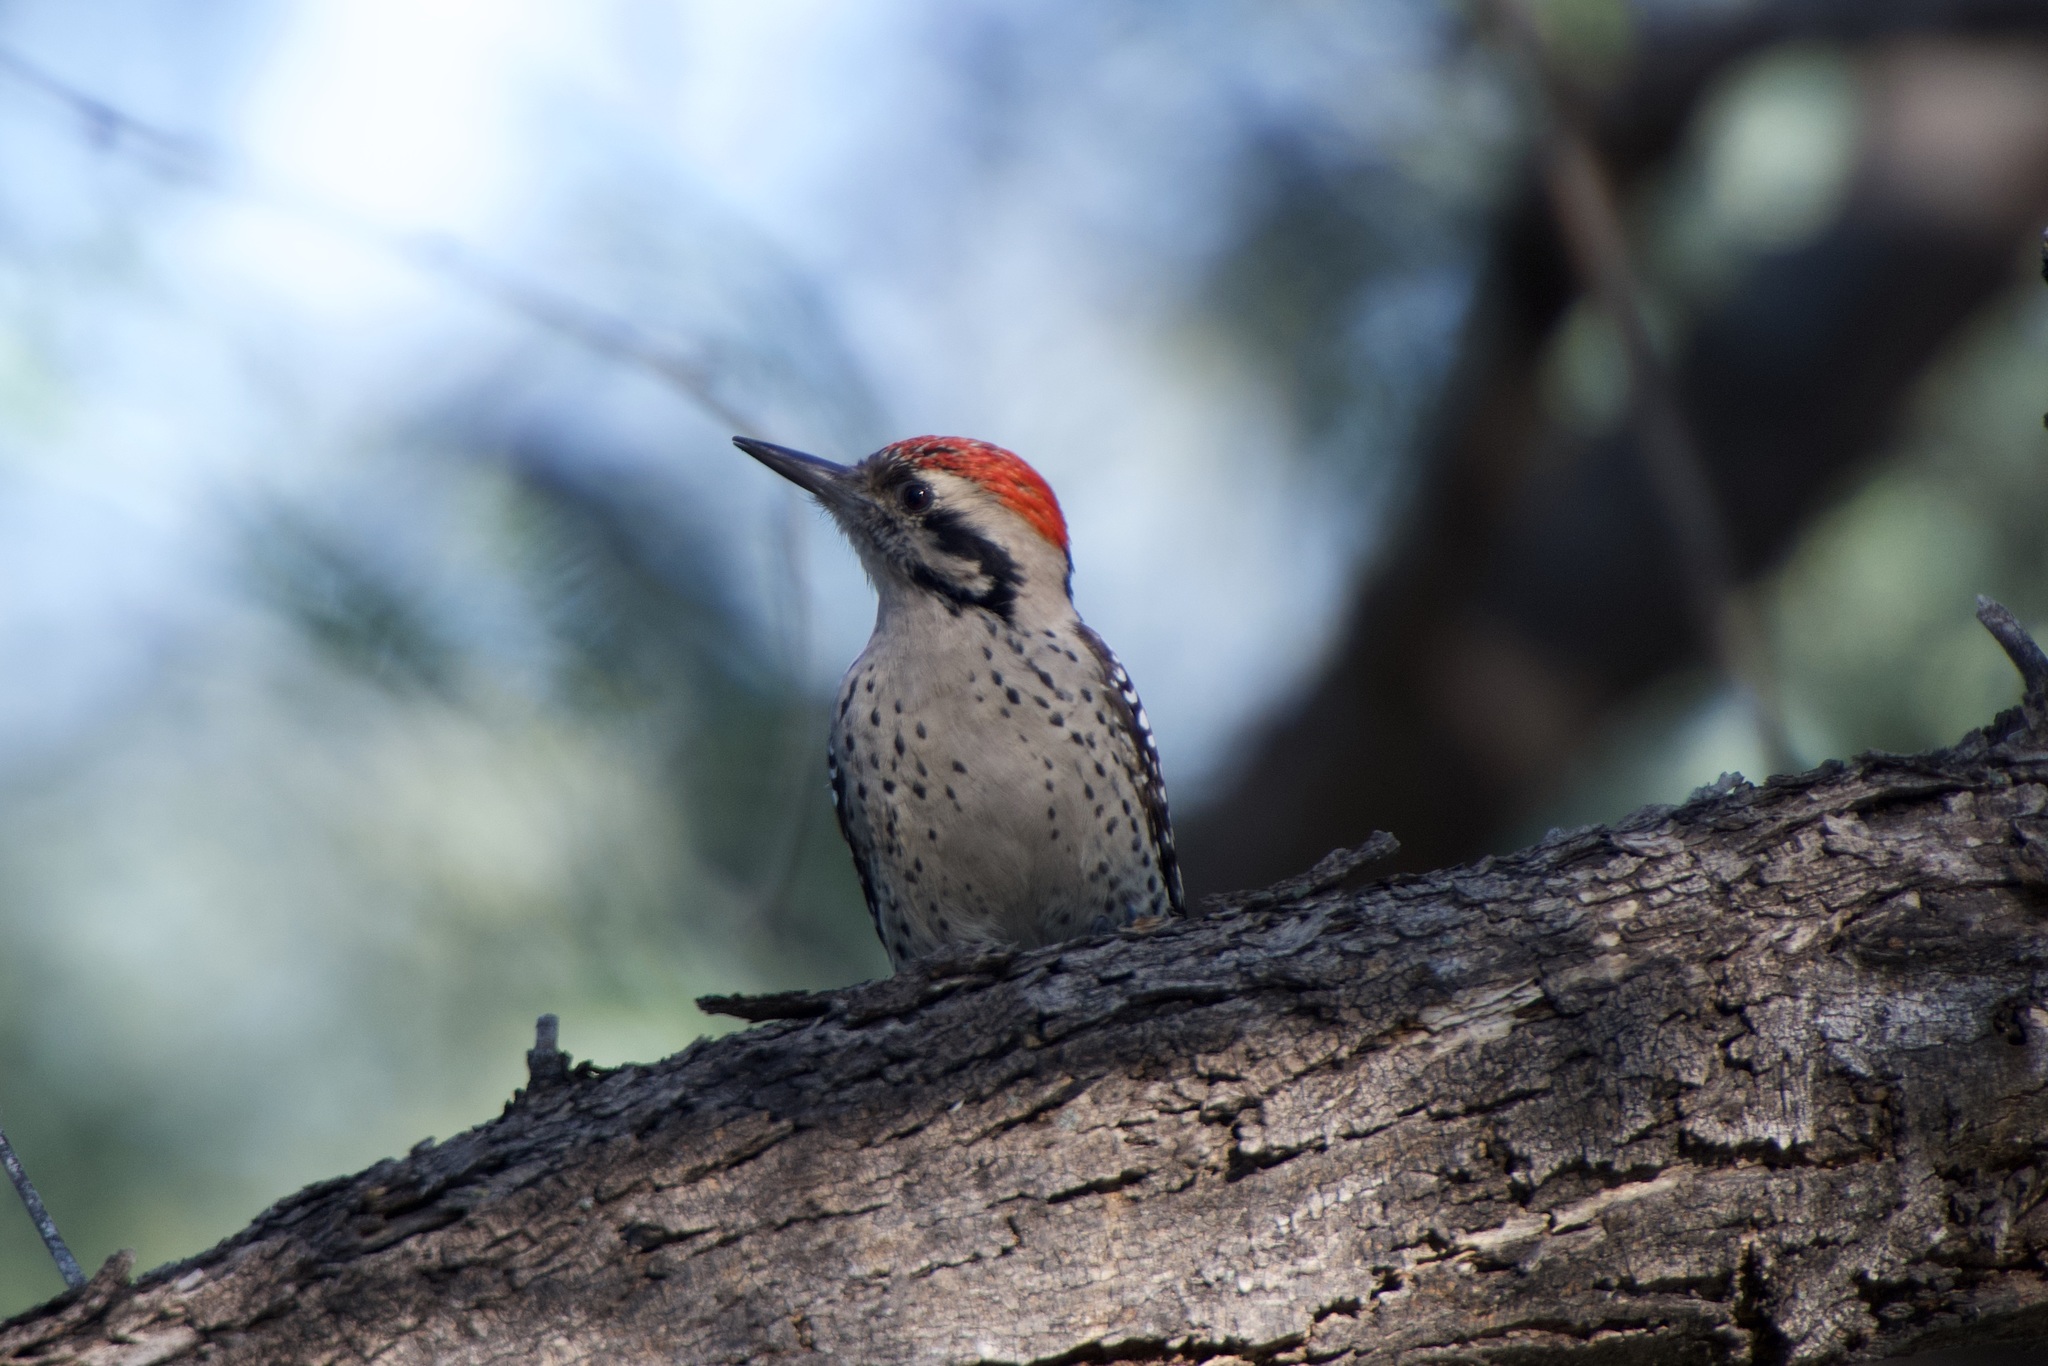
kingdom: Animalia
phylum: Chordata
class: Aves
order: Piciformes
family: Picidae
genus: Dryobates
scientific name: Dryobates scalaris
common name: Ladder-backed woodpecker
